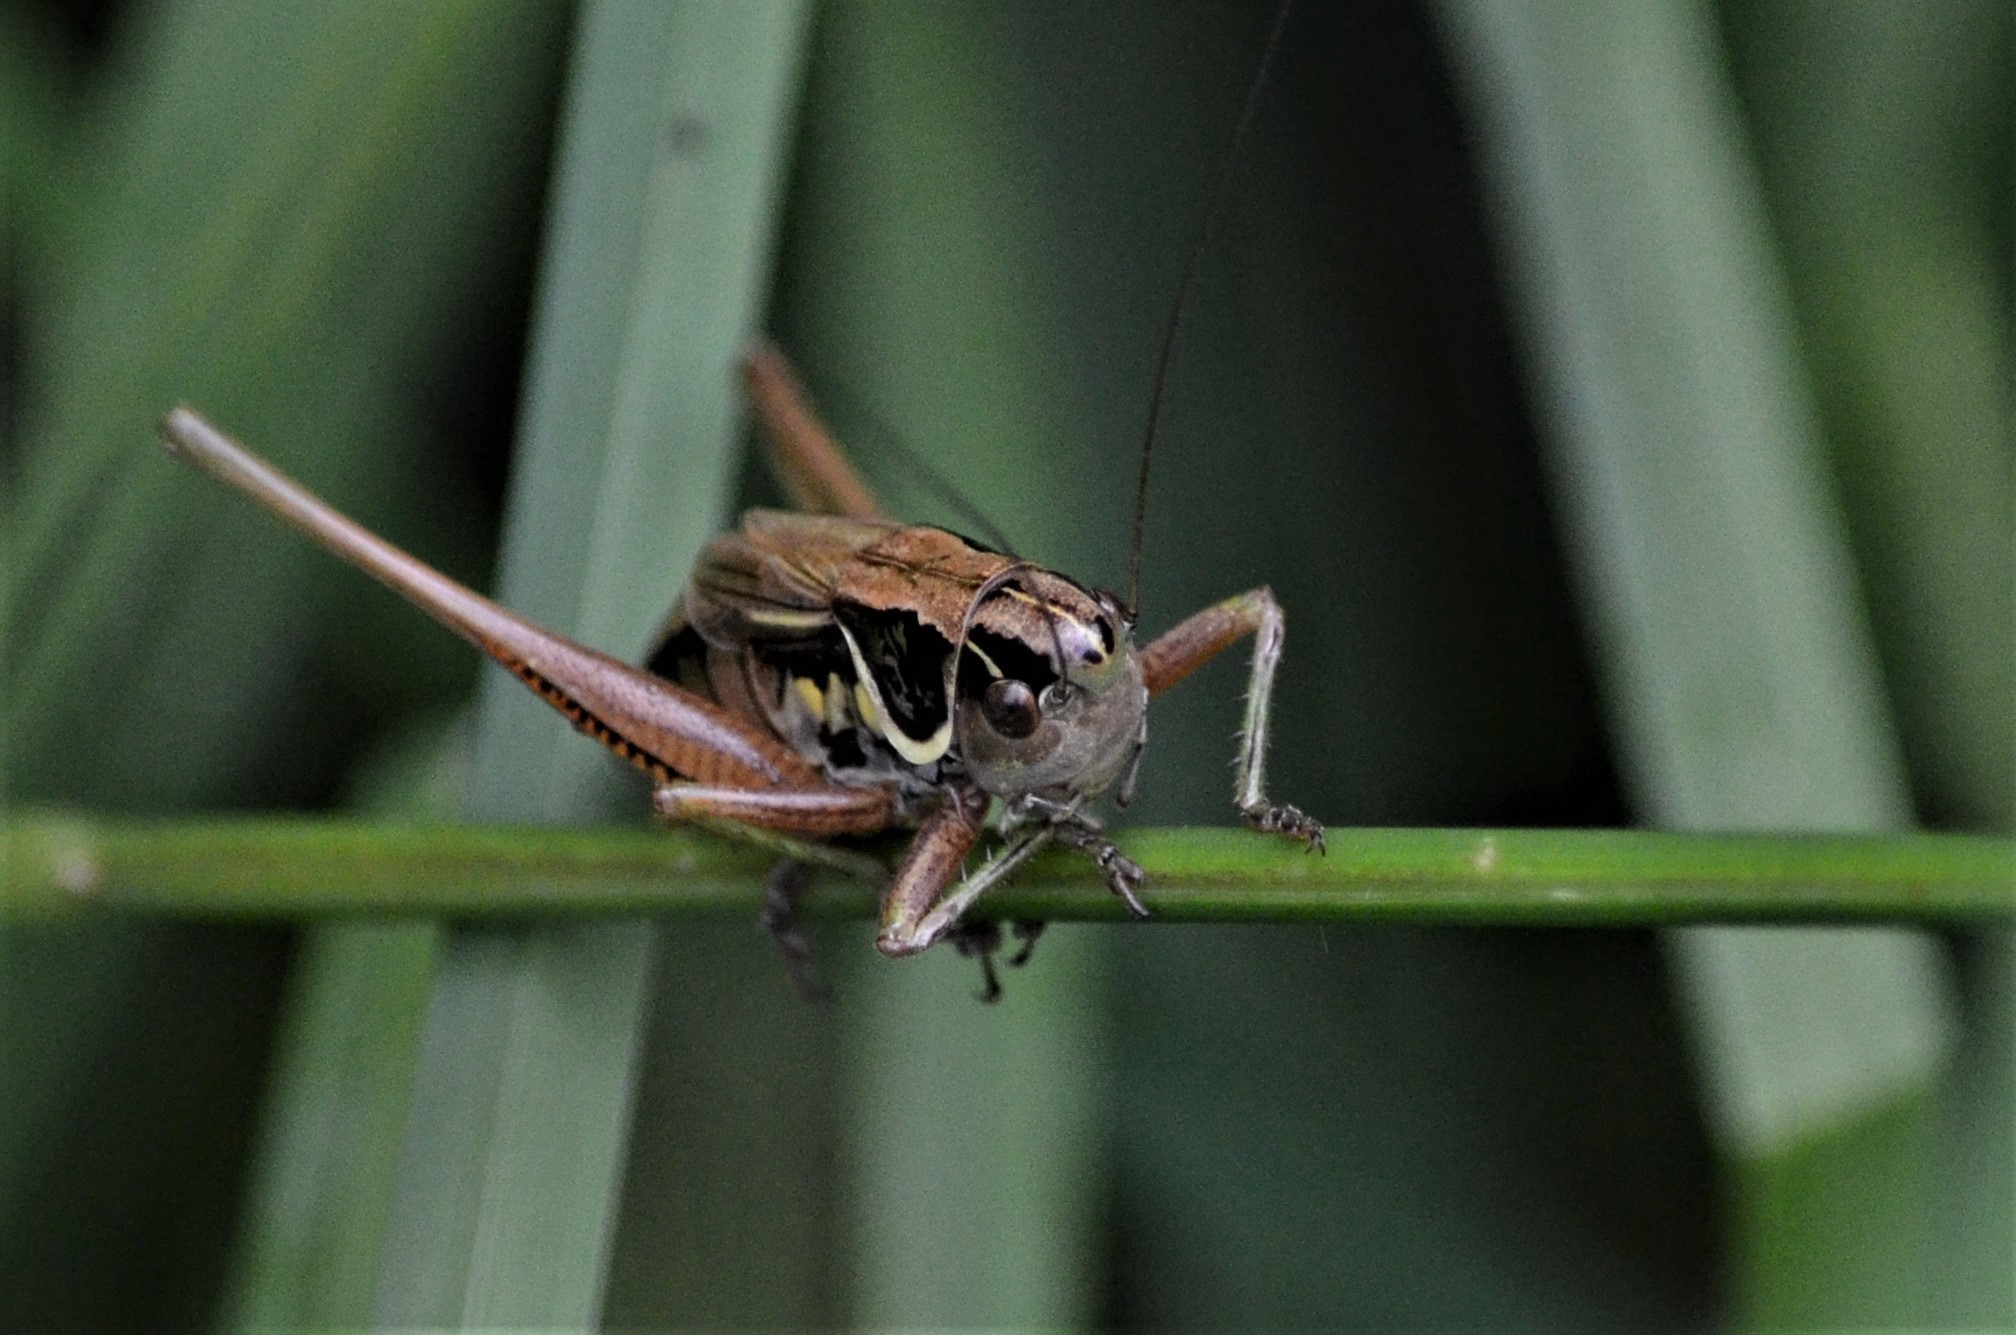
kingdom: Animalia
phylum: Arthropoda
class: Insecta
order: Orthoptera
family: Tettigoniidae
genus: Roeseliana
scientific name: Roeseliana roeselii
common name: Roesel's bush cricket
